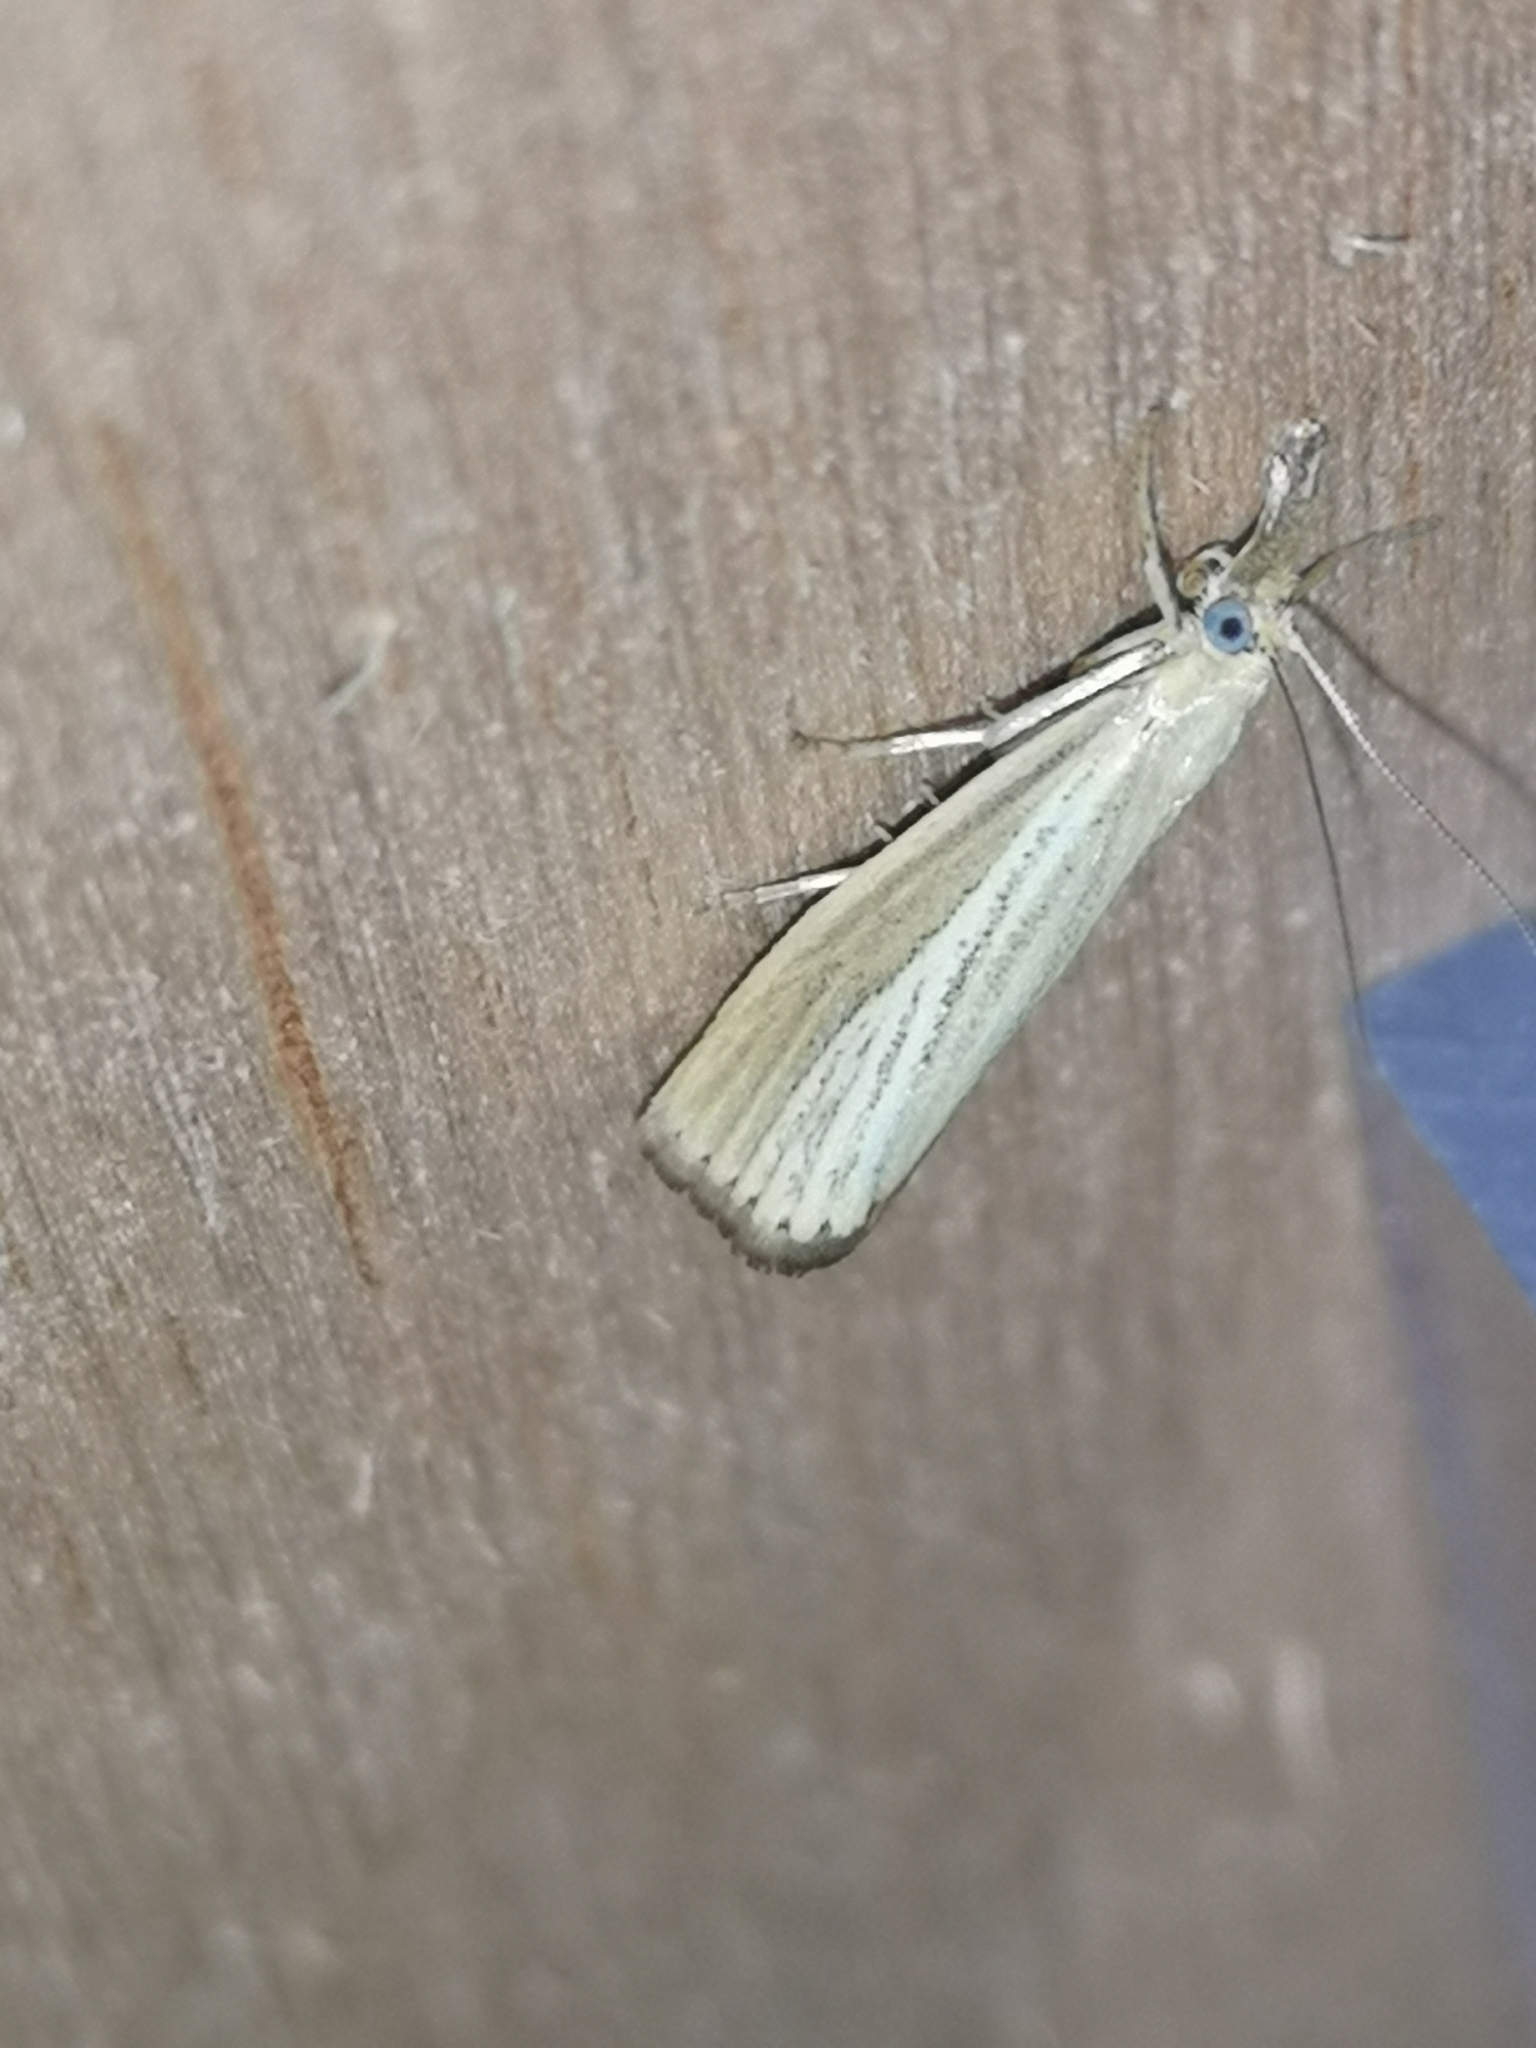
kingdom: Animalia
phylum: Arthropoda
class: Insecta
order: Lepidoptera
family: Crambidae
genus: Agriphila
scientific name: Agriphila straminella
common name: Straw grass-veneer
